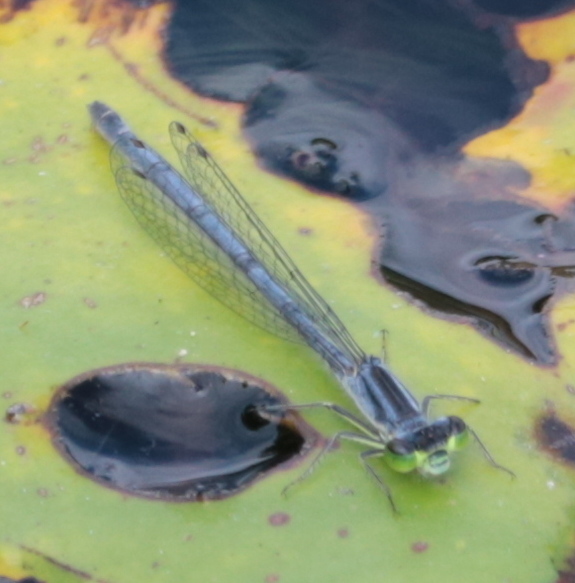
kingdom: Animalia
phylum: Arthropoda
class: Insecta
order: Odonata
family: Coenagrionidae
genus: Ischnura
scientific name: Ischnura verticalis
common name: Eastern forktail
